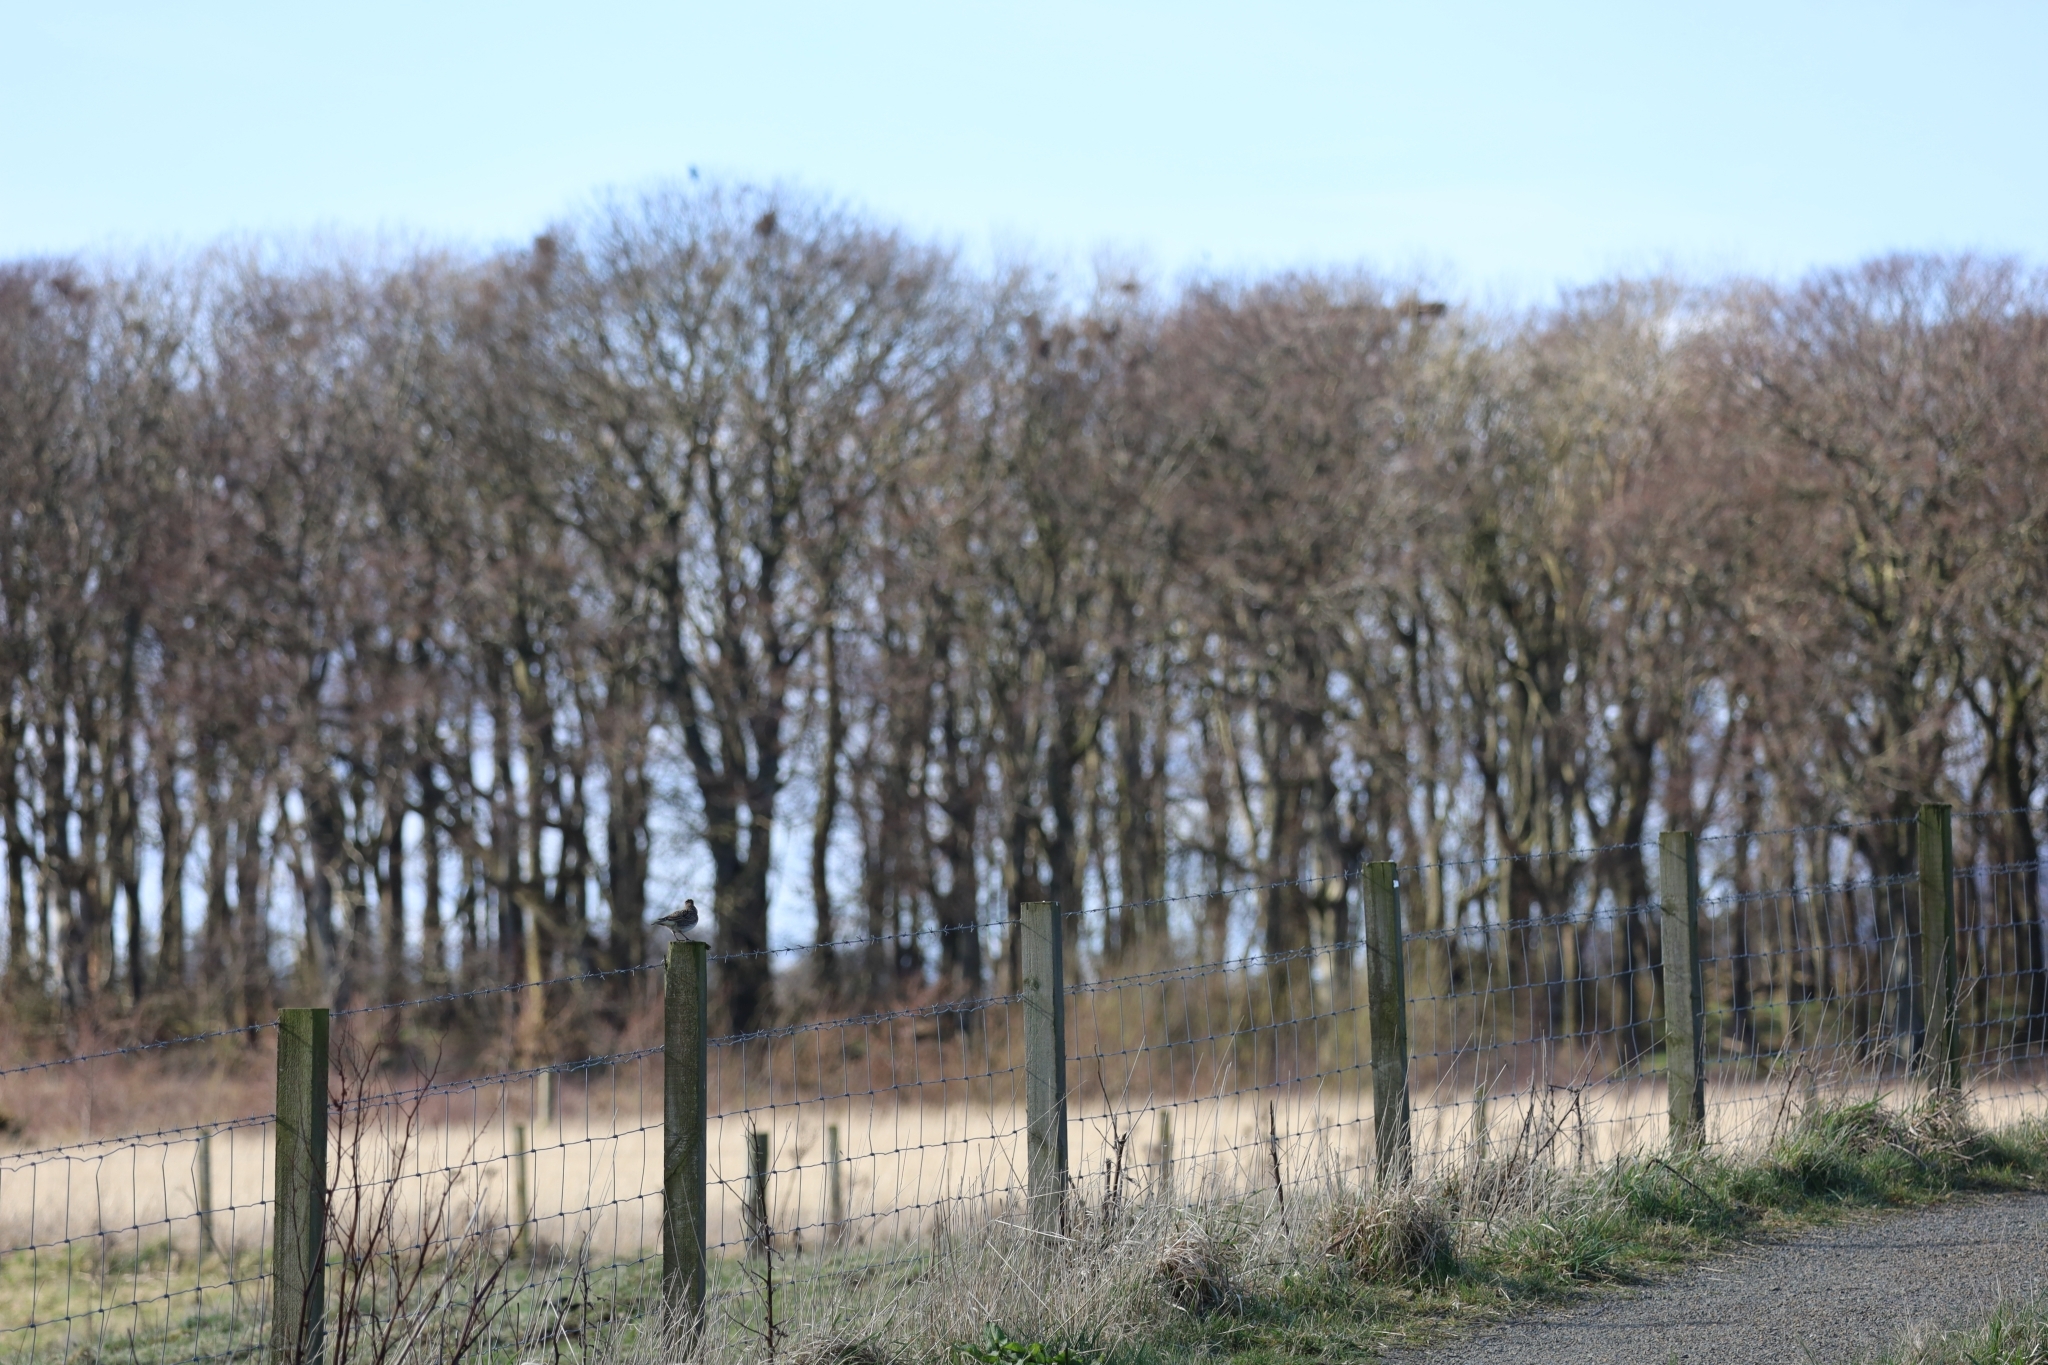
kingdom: Animalia
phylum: Chordata
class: Aves
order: Passeriformes
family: Alaudidae
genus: Alauda
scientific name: Alauda arvensis
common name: Eurasian skylark
